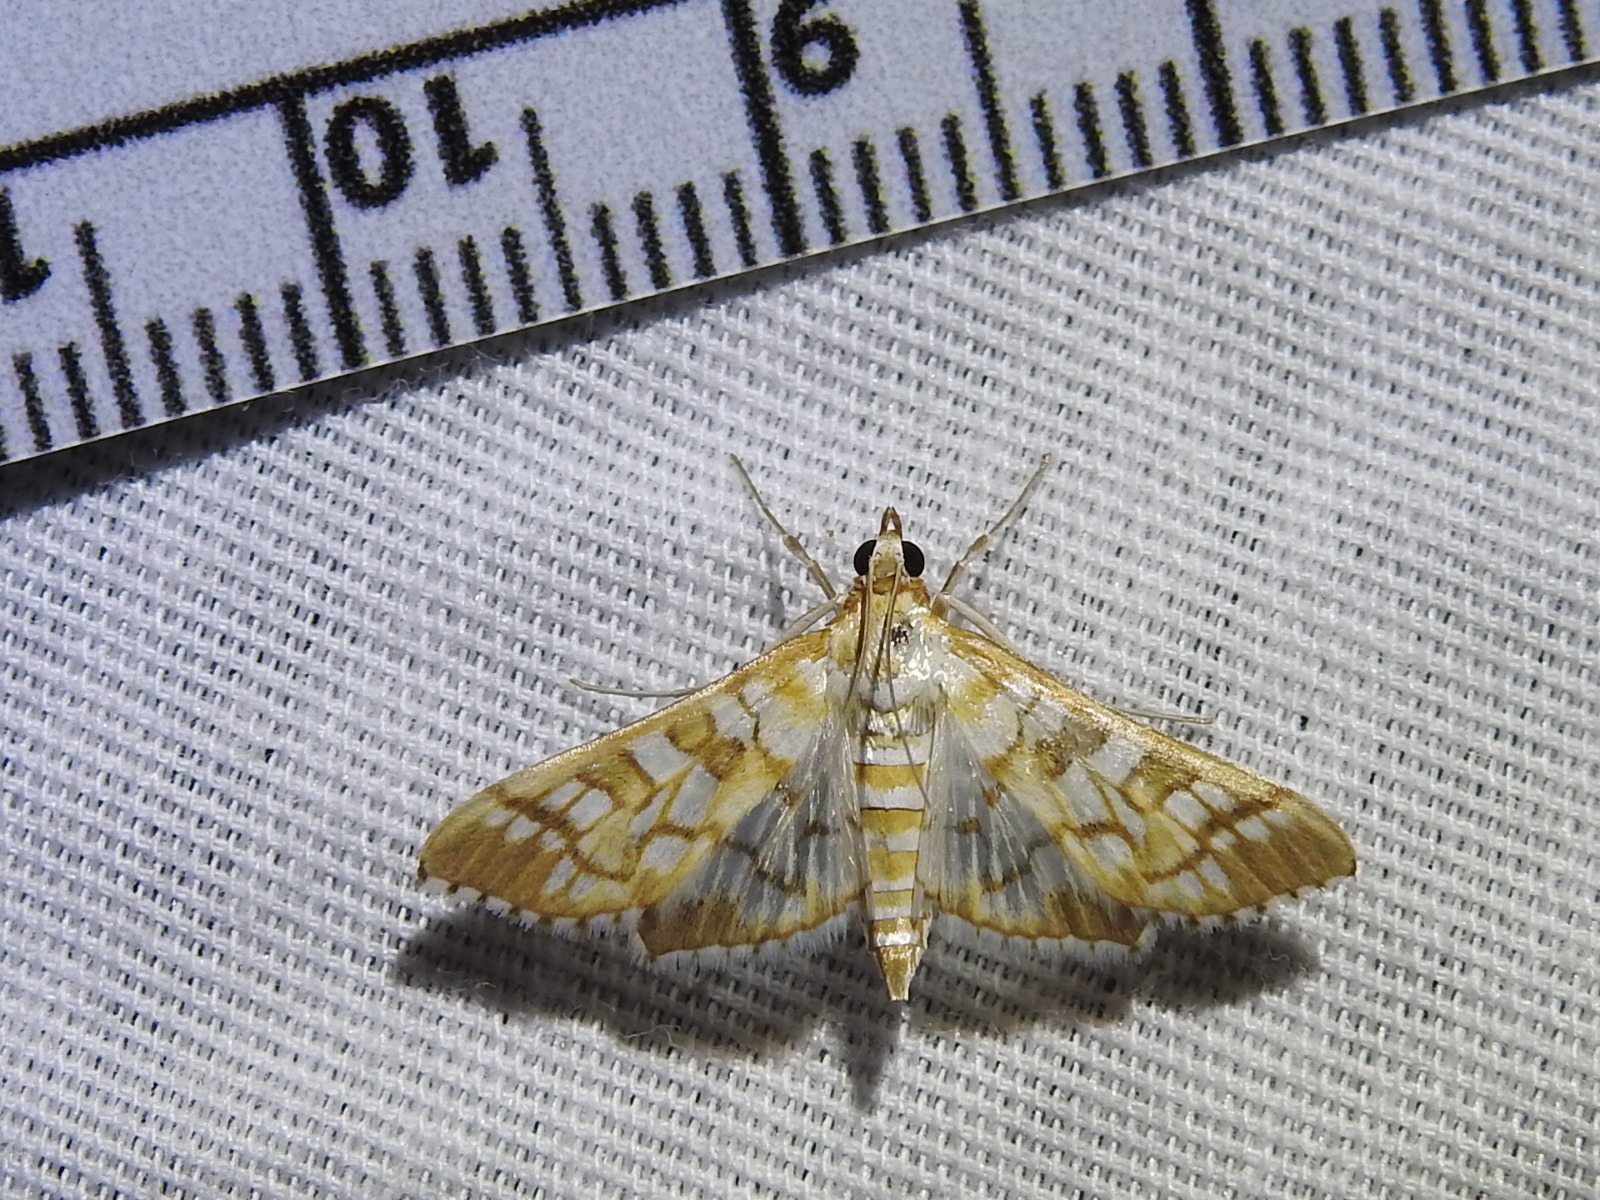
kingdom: Animalia
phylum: Arthropoda
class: Insecta
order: Lepidoptera
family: Crambidae
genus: Epipagis
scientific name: Epipagis fenestralis
